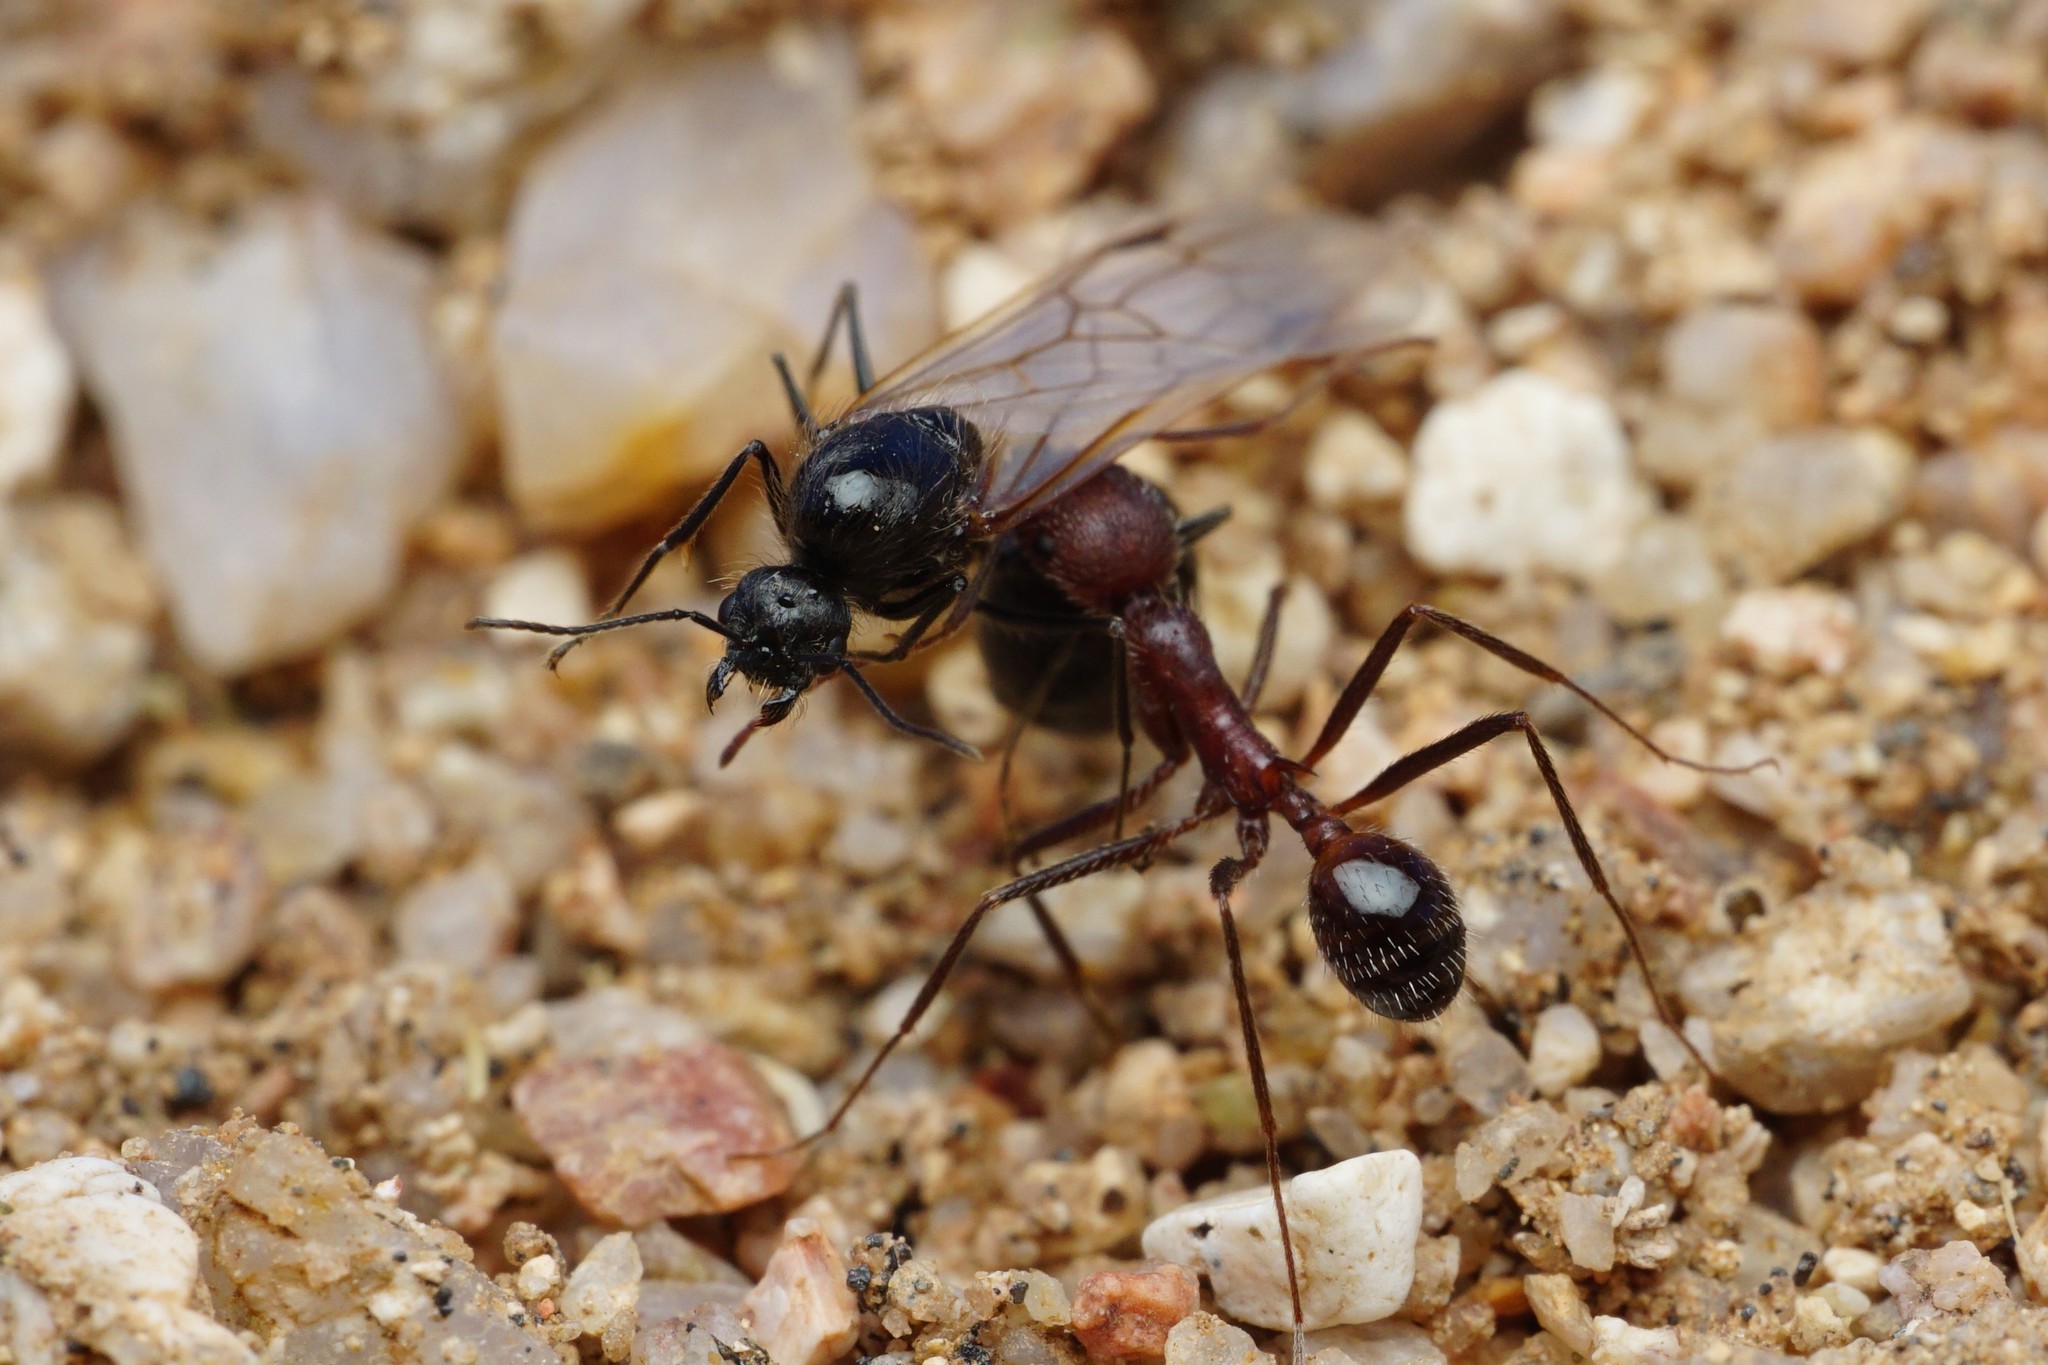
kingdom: Animalia
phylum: Arthropoda
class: Insecta
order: Hymenoptera
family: Formicidae
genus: Messor
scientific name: Messor pergandei
